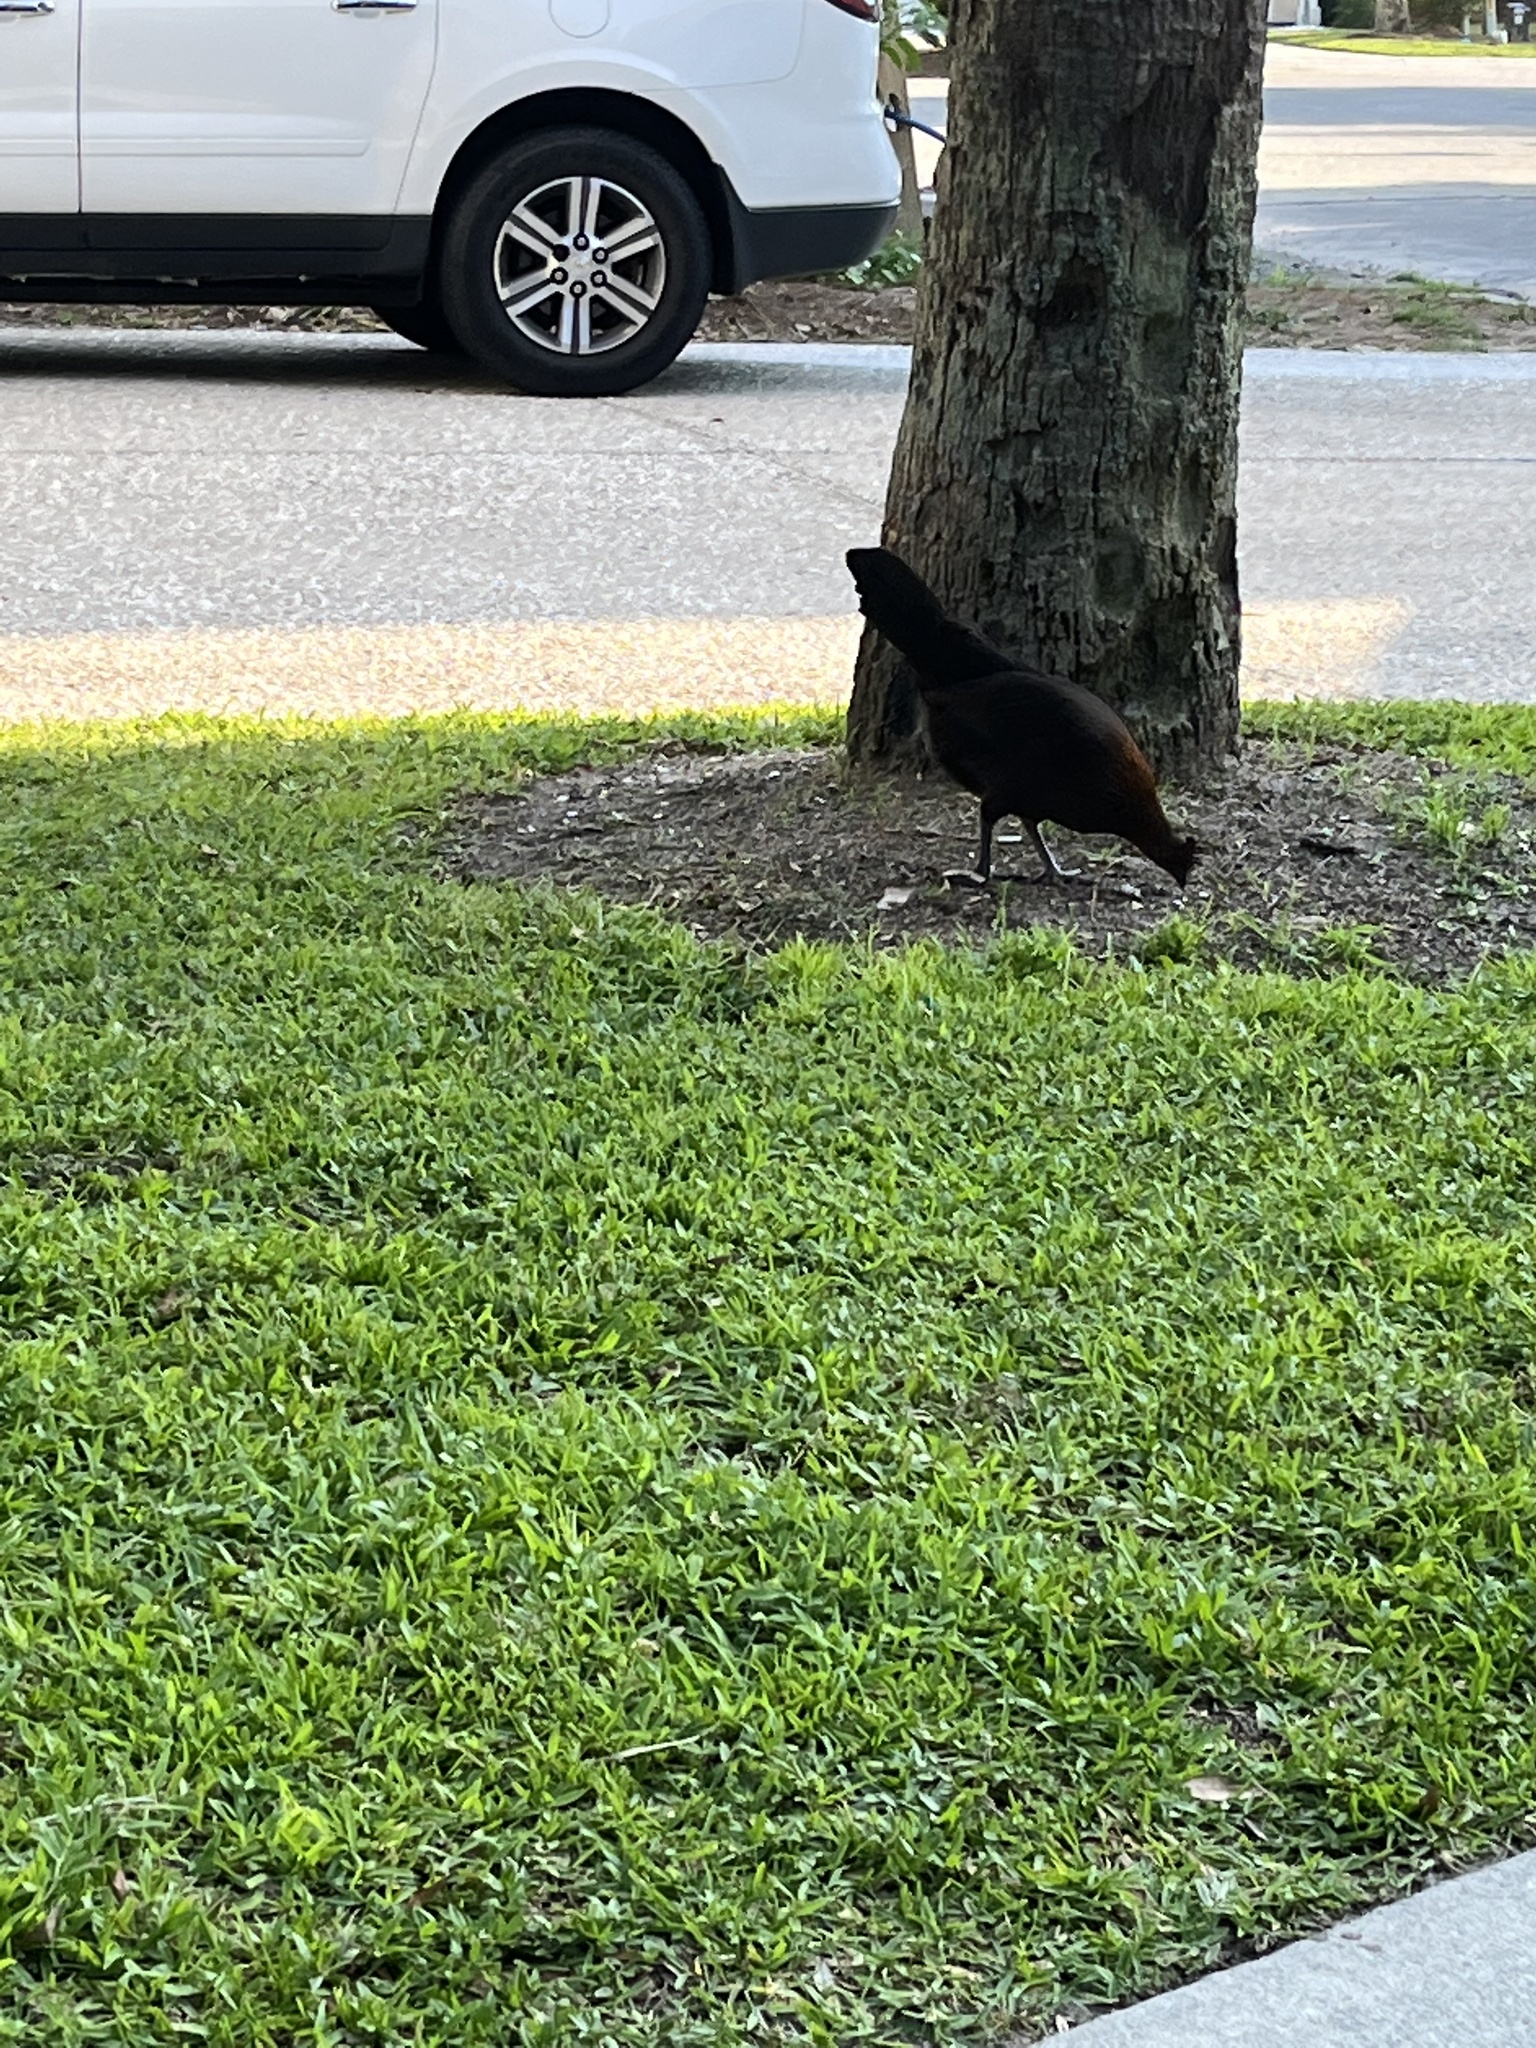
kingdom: Animalia
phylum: Chordata
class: Aves
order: Galliformes
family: Phasianidae
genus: Gallus
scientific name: Gallus gallus
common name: Red junglefowl
